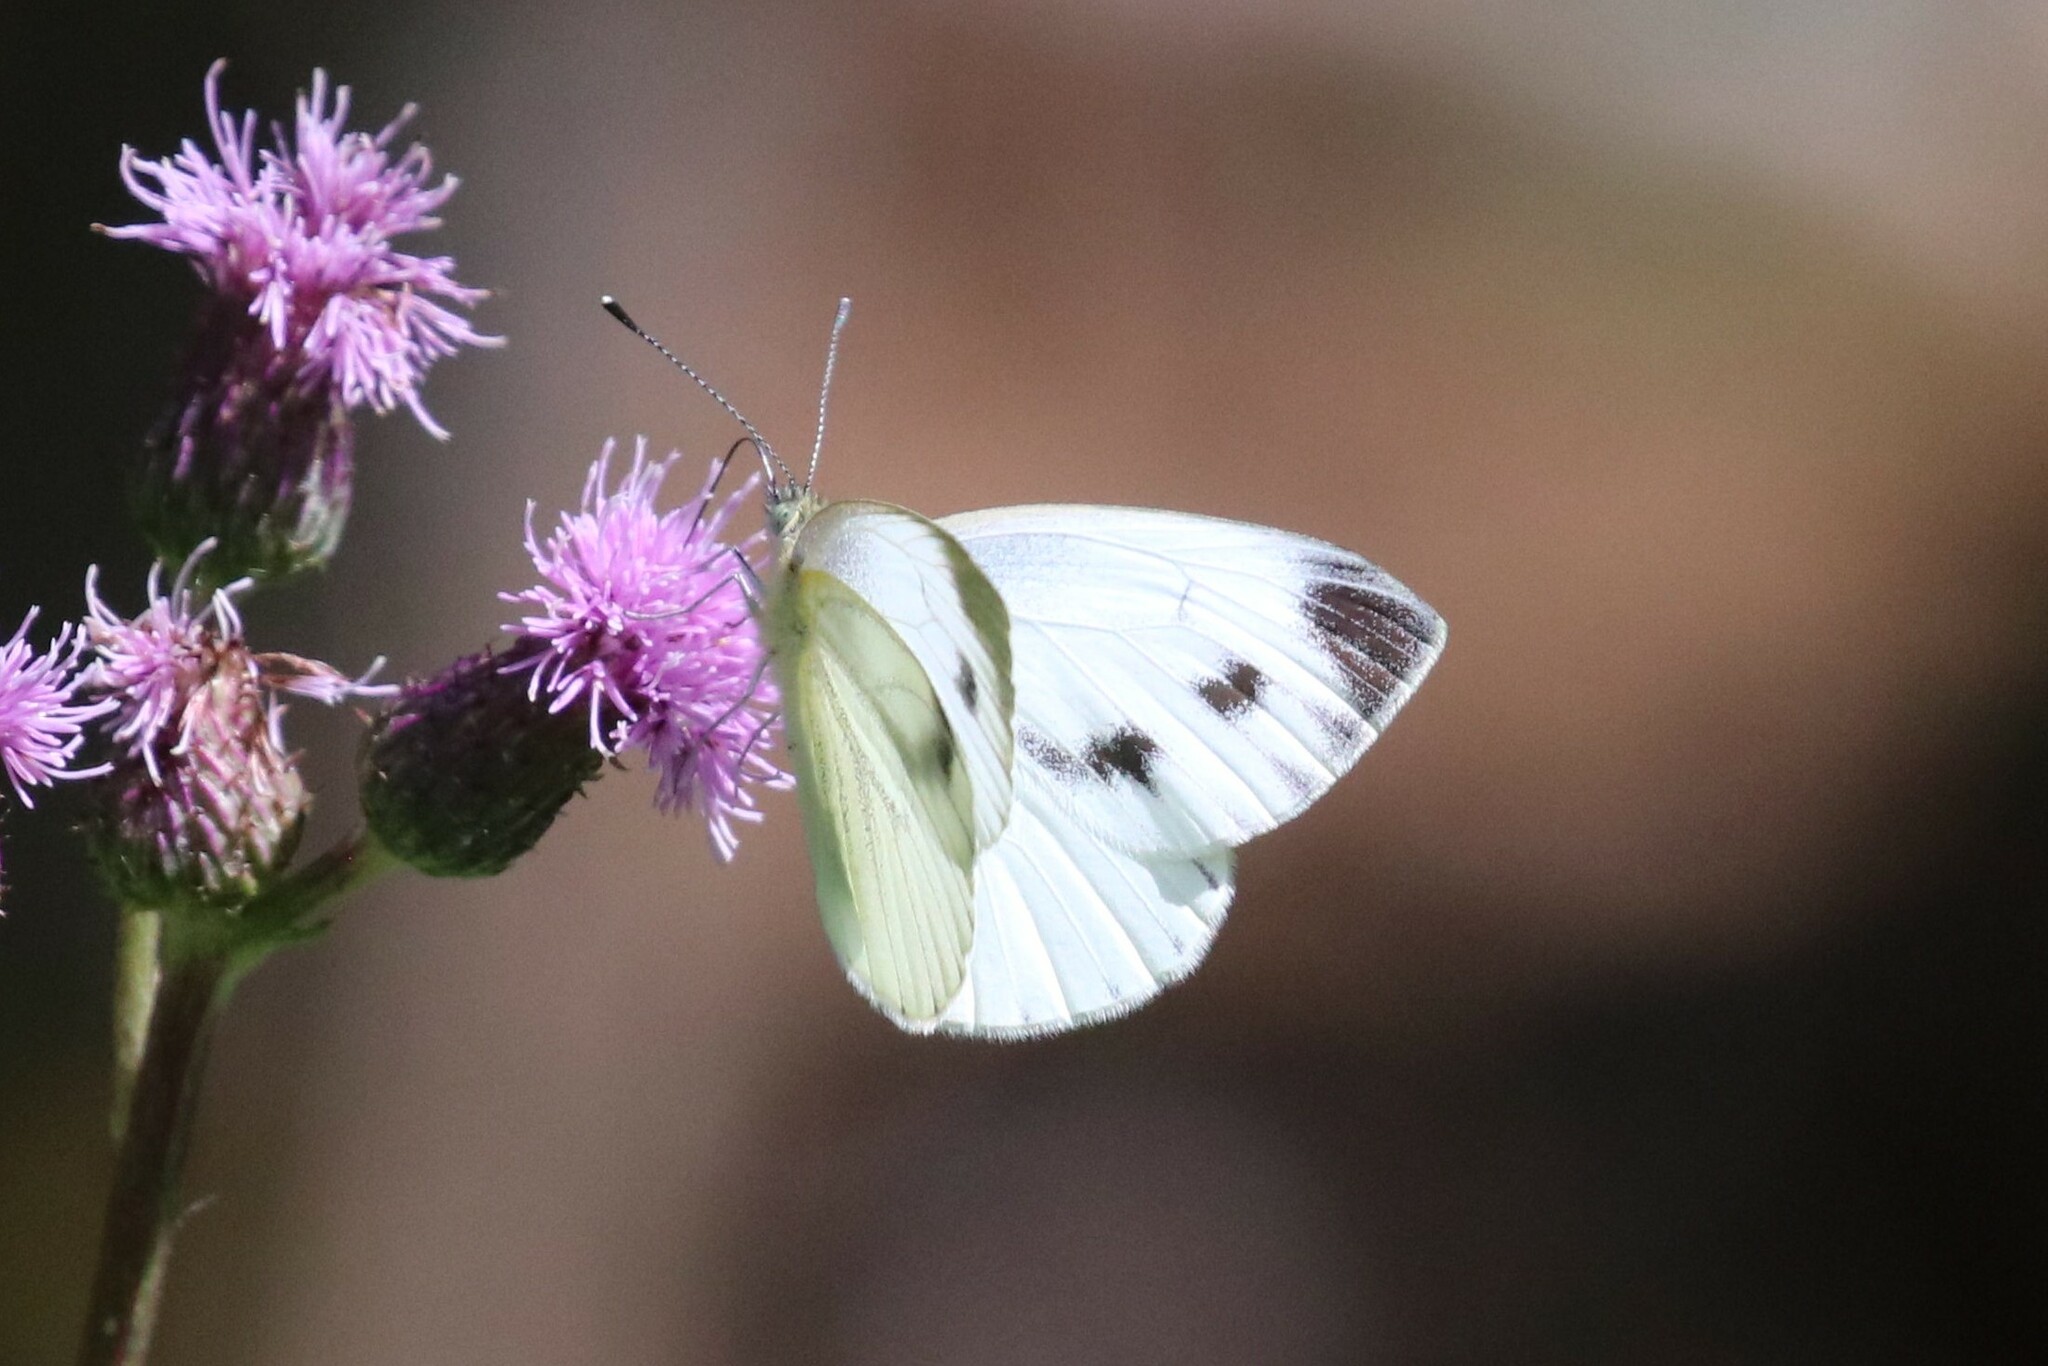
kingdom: Animalia
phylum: Arthropoda
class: Insecta
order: Lepidoptera
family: Pieridae
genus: Pieris
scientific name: Pieris napi
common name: Green-veined white
